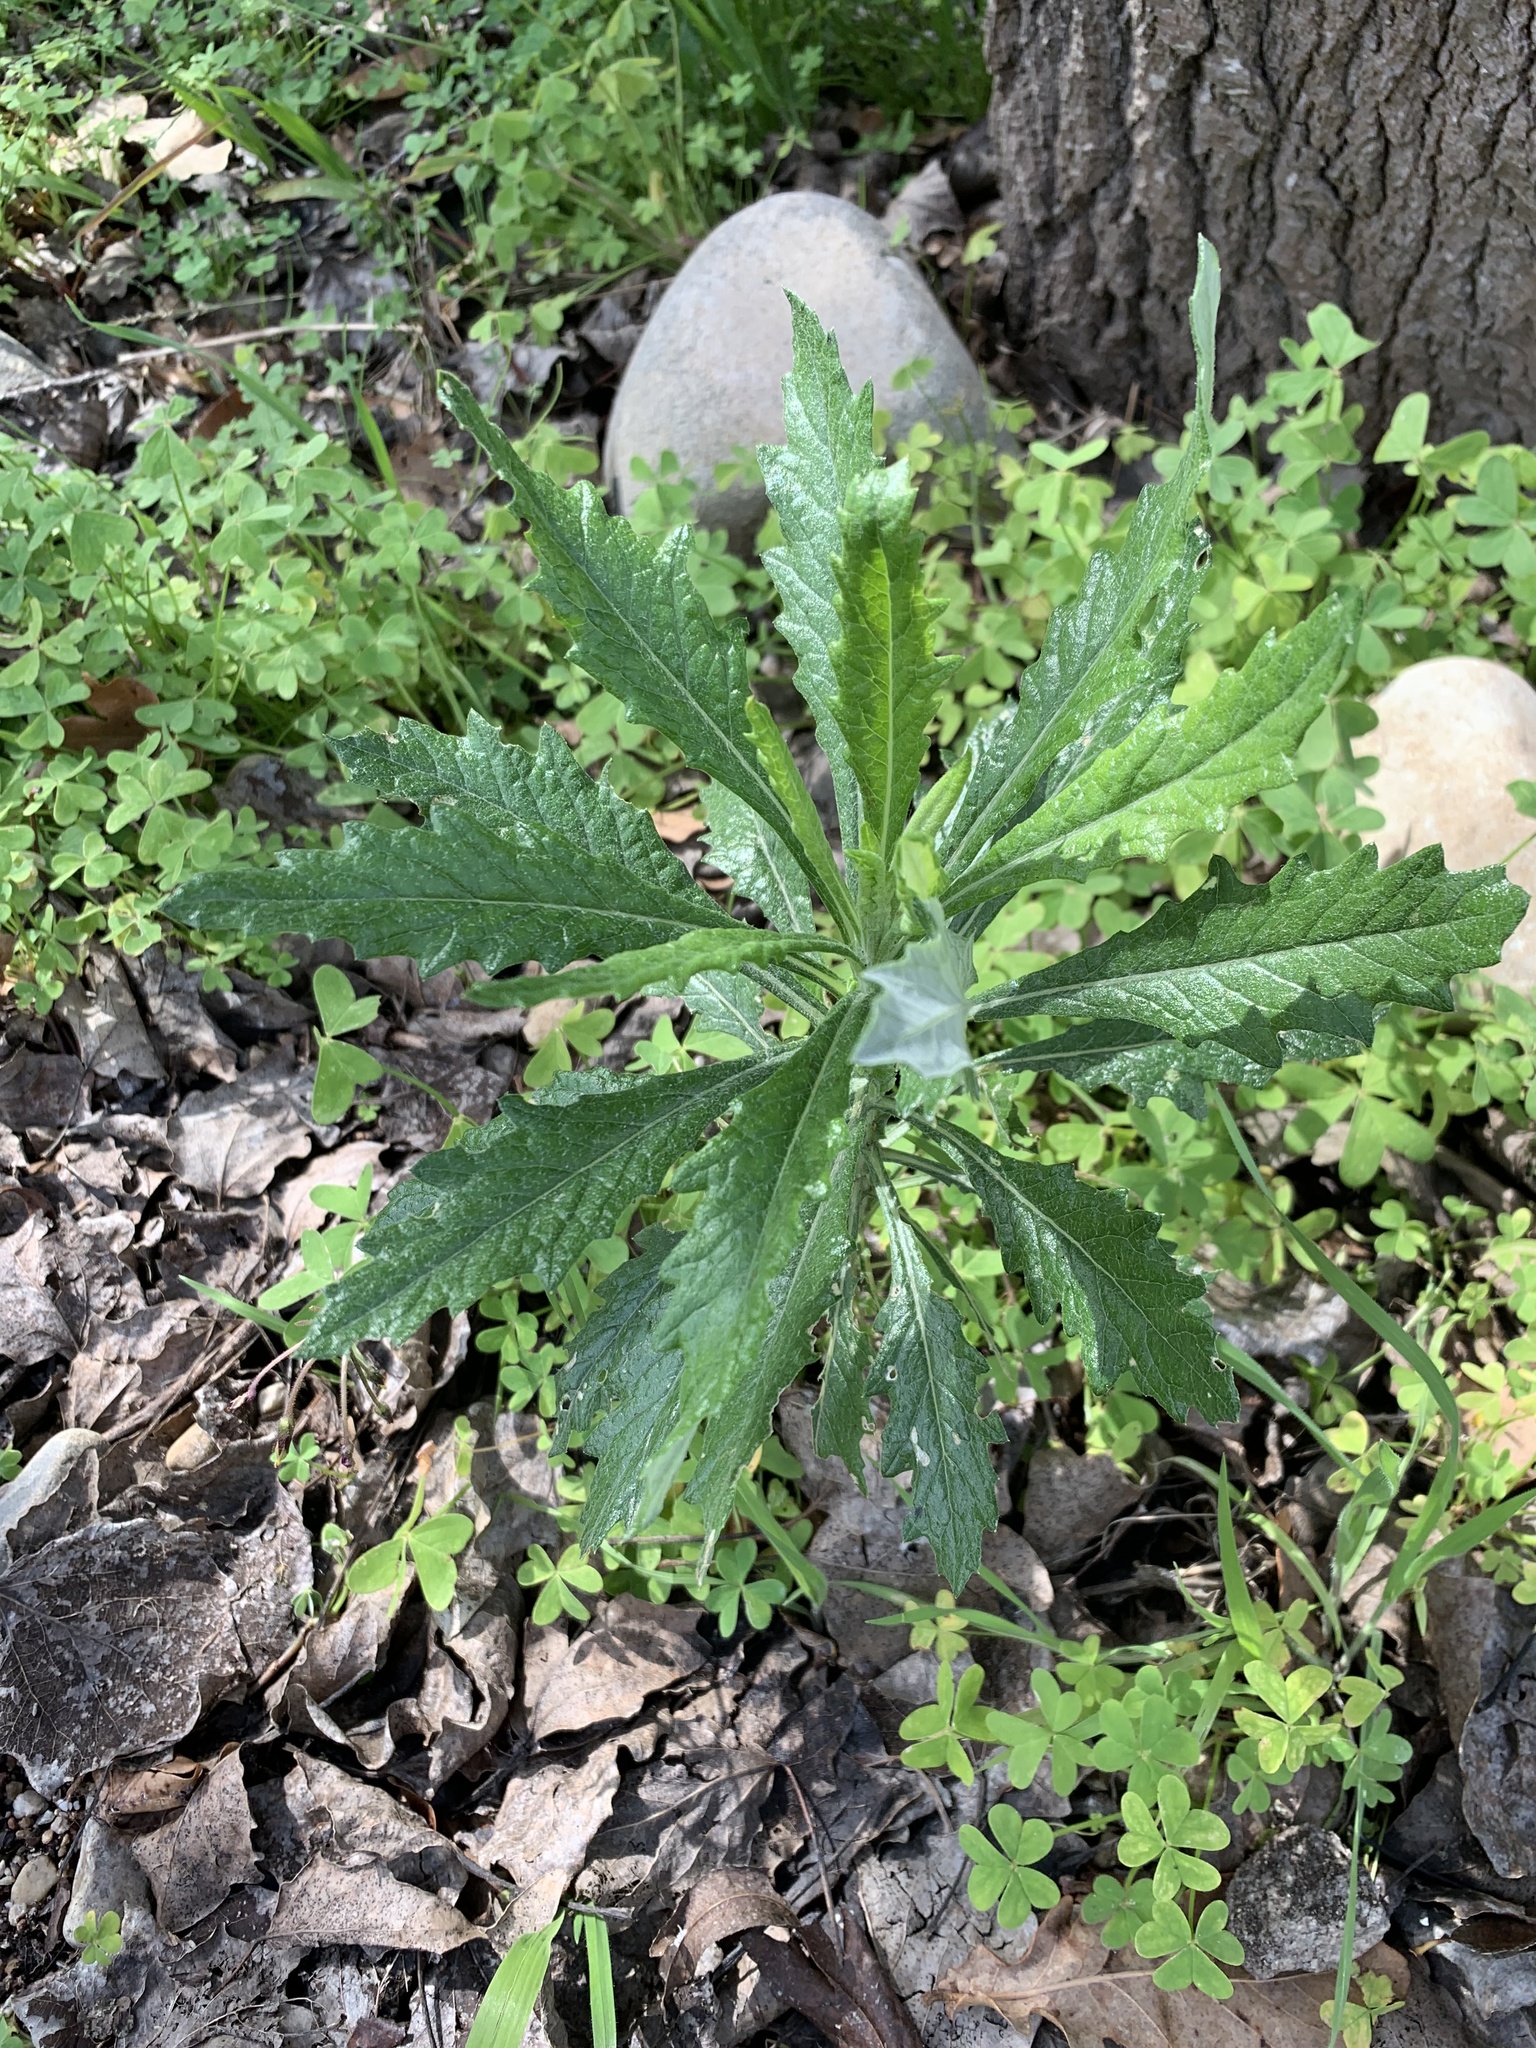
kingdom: Plantae
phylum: Tracheophyta
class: Magnoliopsida
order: Asterales
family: Asteraceae
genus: Senecio
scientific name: Senecio pterophorus
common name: Shoddy ragwort
